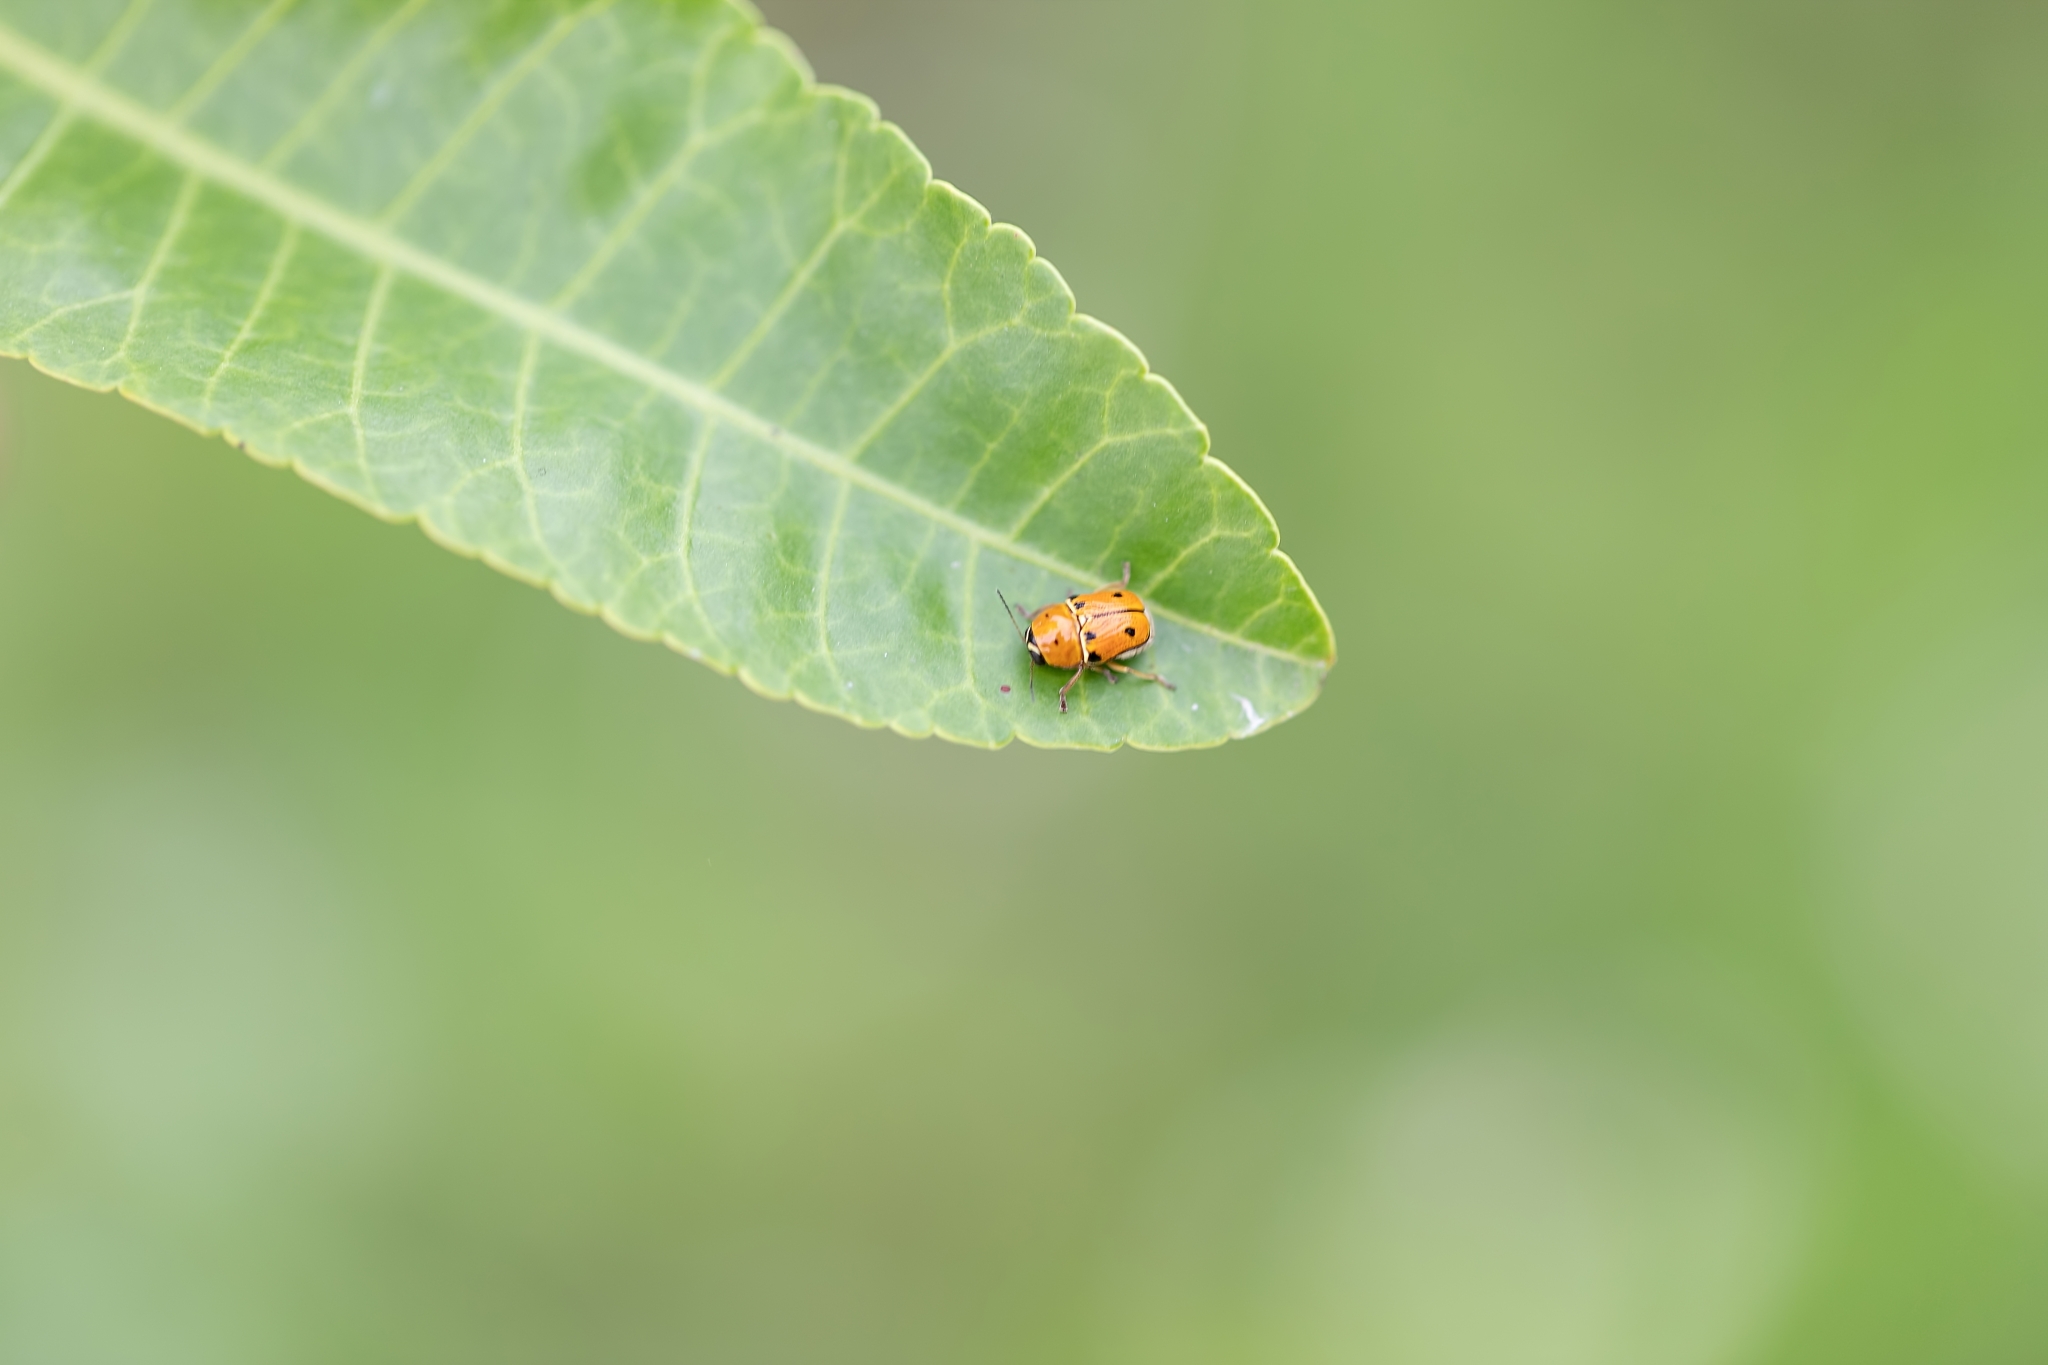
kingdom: Animalia
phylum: Arthropoda
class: Insecta
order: Coleoptera
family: Chrysomelidae
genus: Griburius
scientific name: Griburius larvatus
